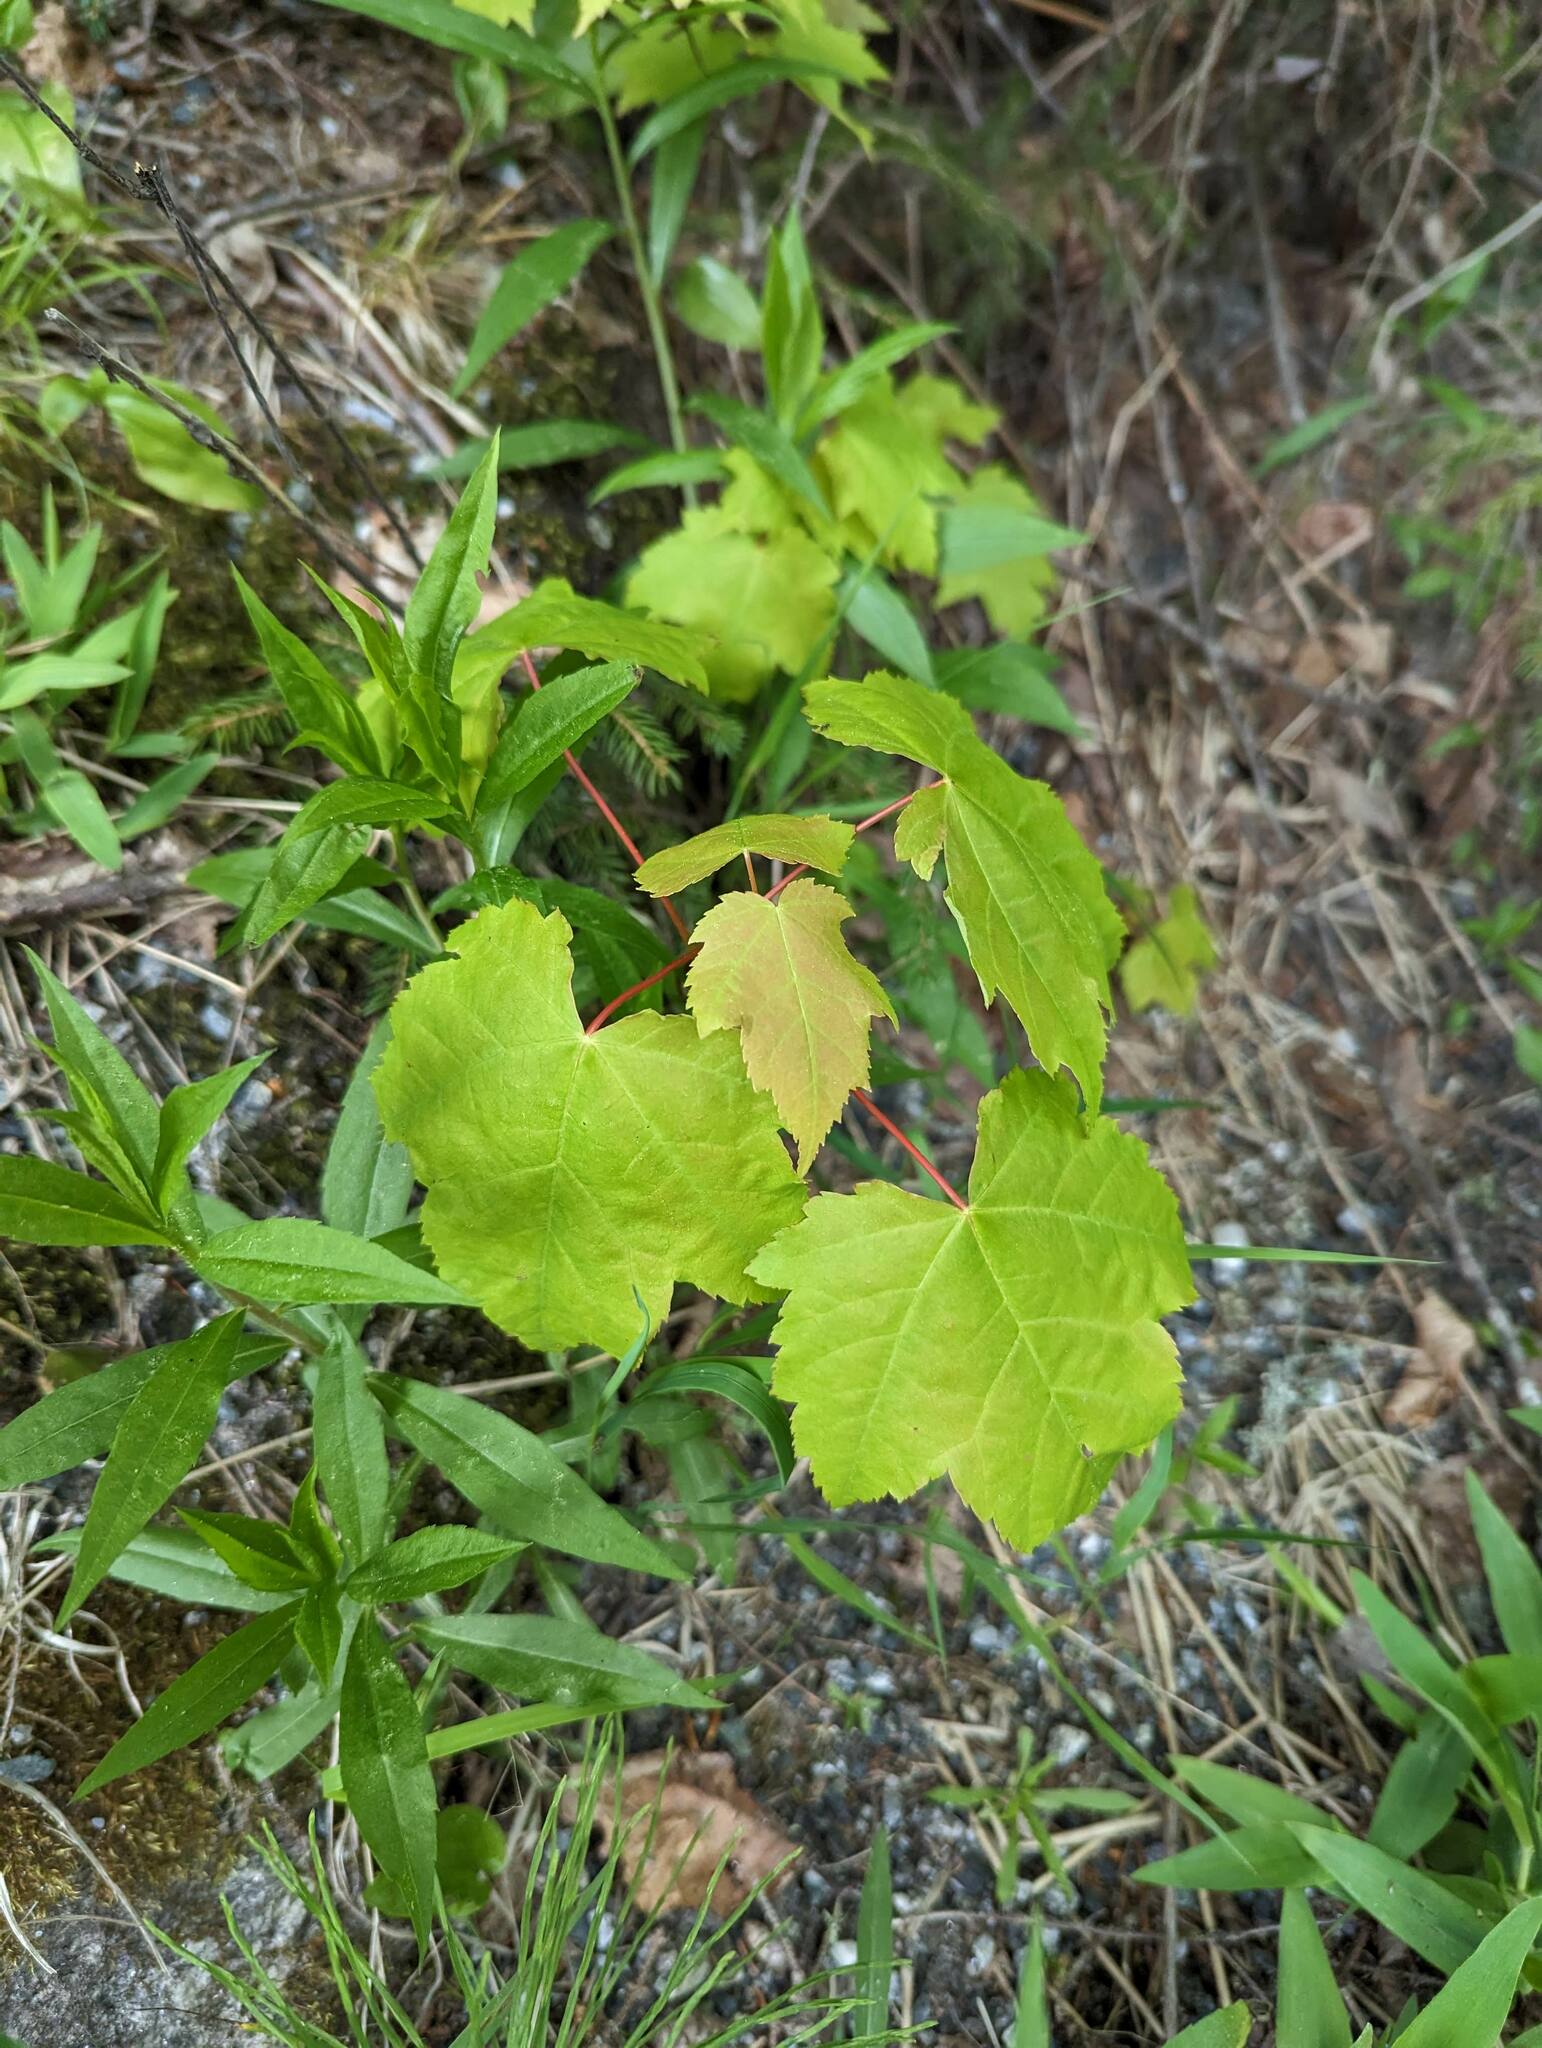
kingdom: Plantae
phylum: Tracheophyta
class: Magnoliopsida
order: Sapindales
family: Sapindaceae
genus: Acer
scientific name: Acer rubrum
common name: Red maple
